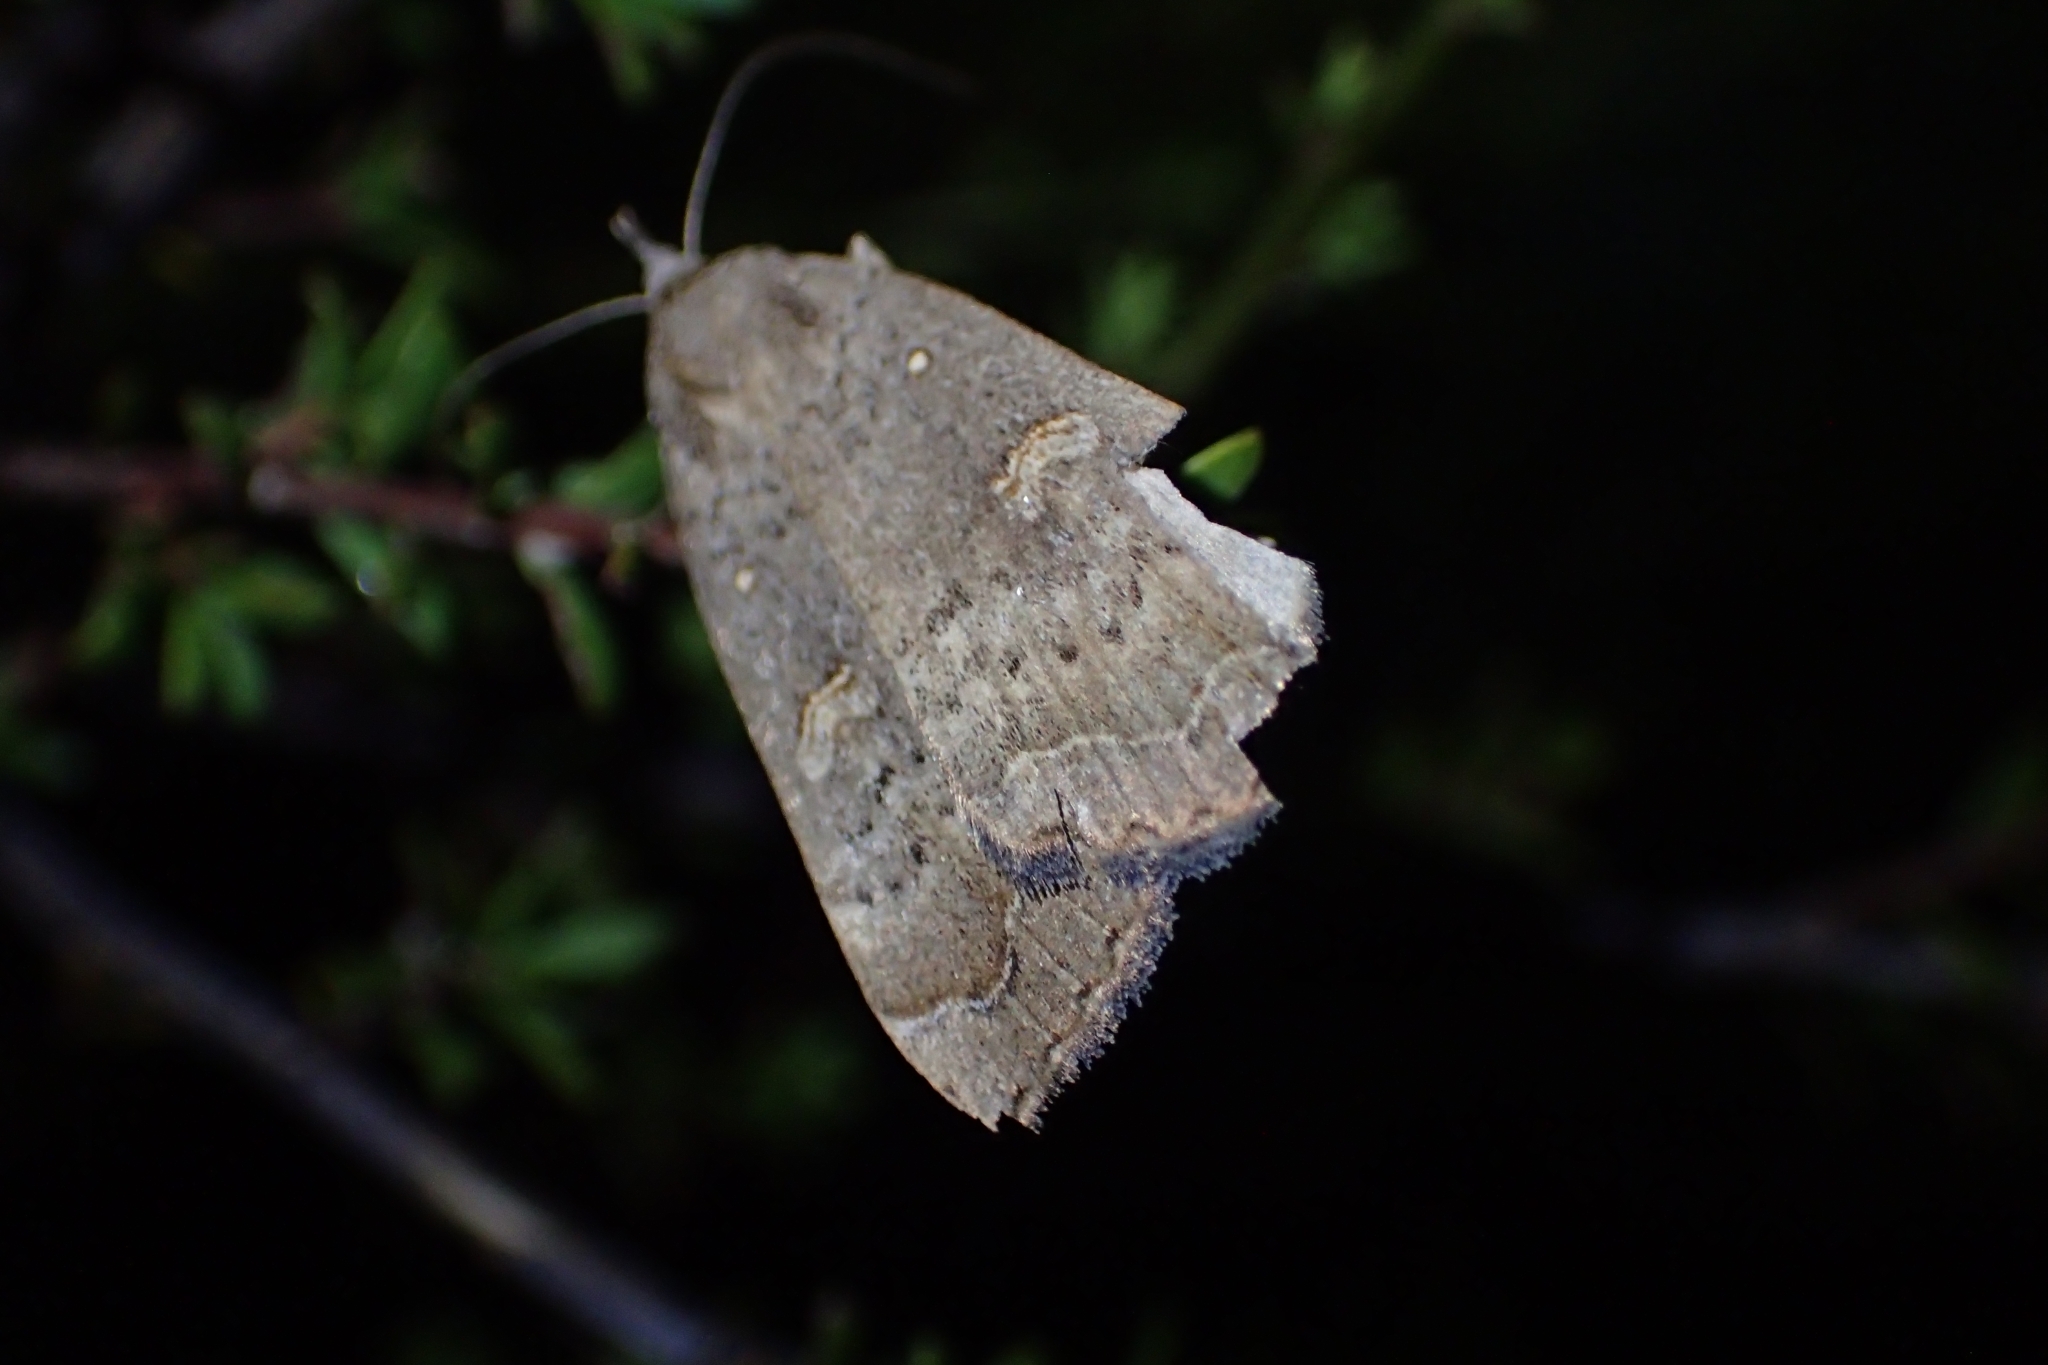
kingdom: Animalia
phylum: Arthropoda
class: Insecta
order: Lepidoptera
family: Erebidae
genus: Rhapsa
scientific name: Rhapsa scotosialis
